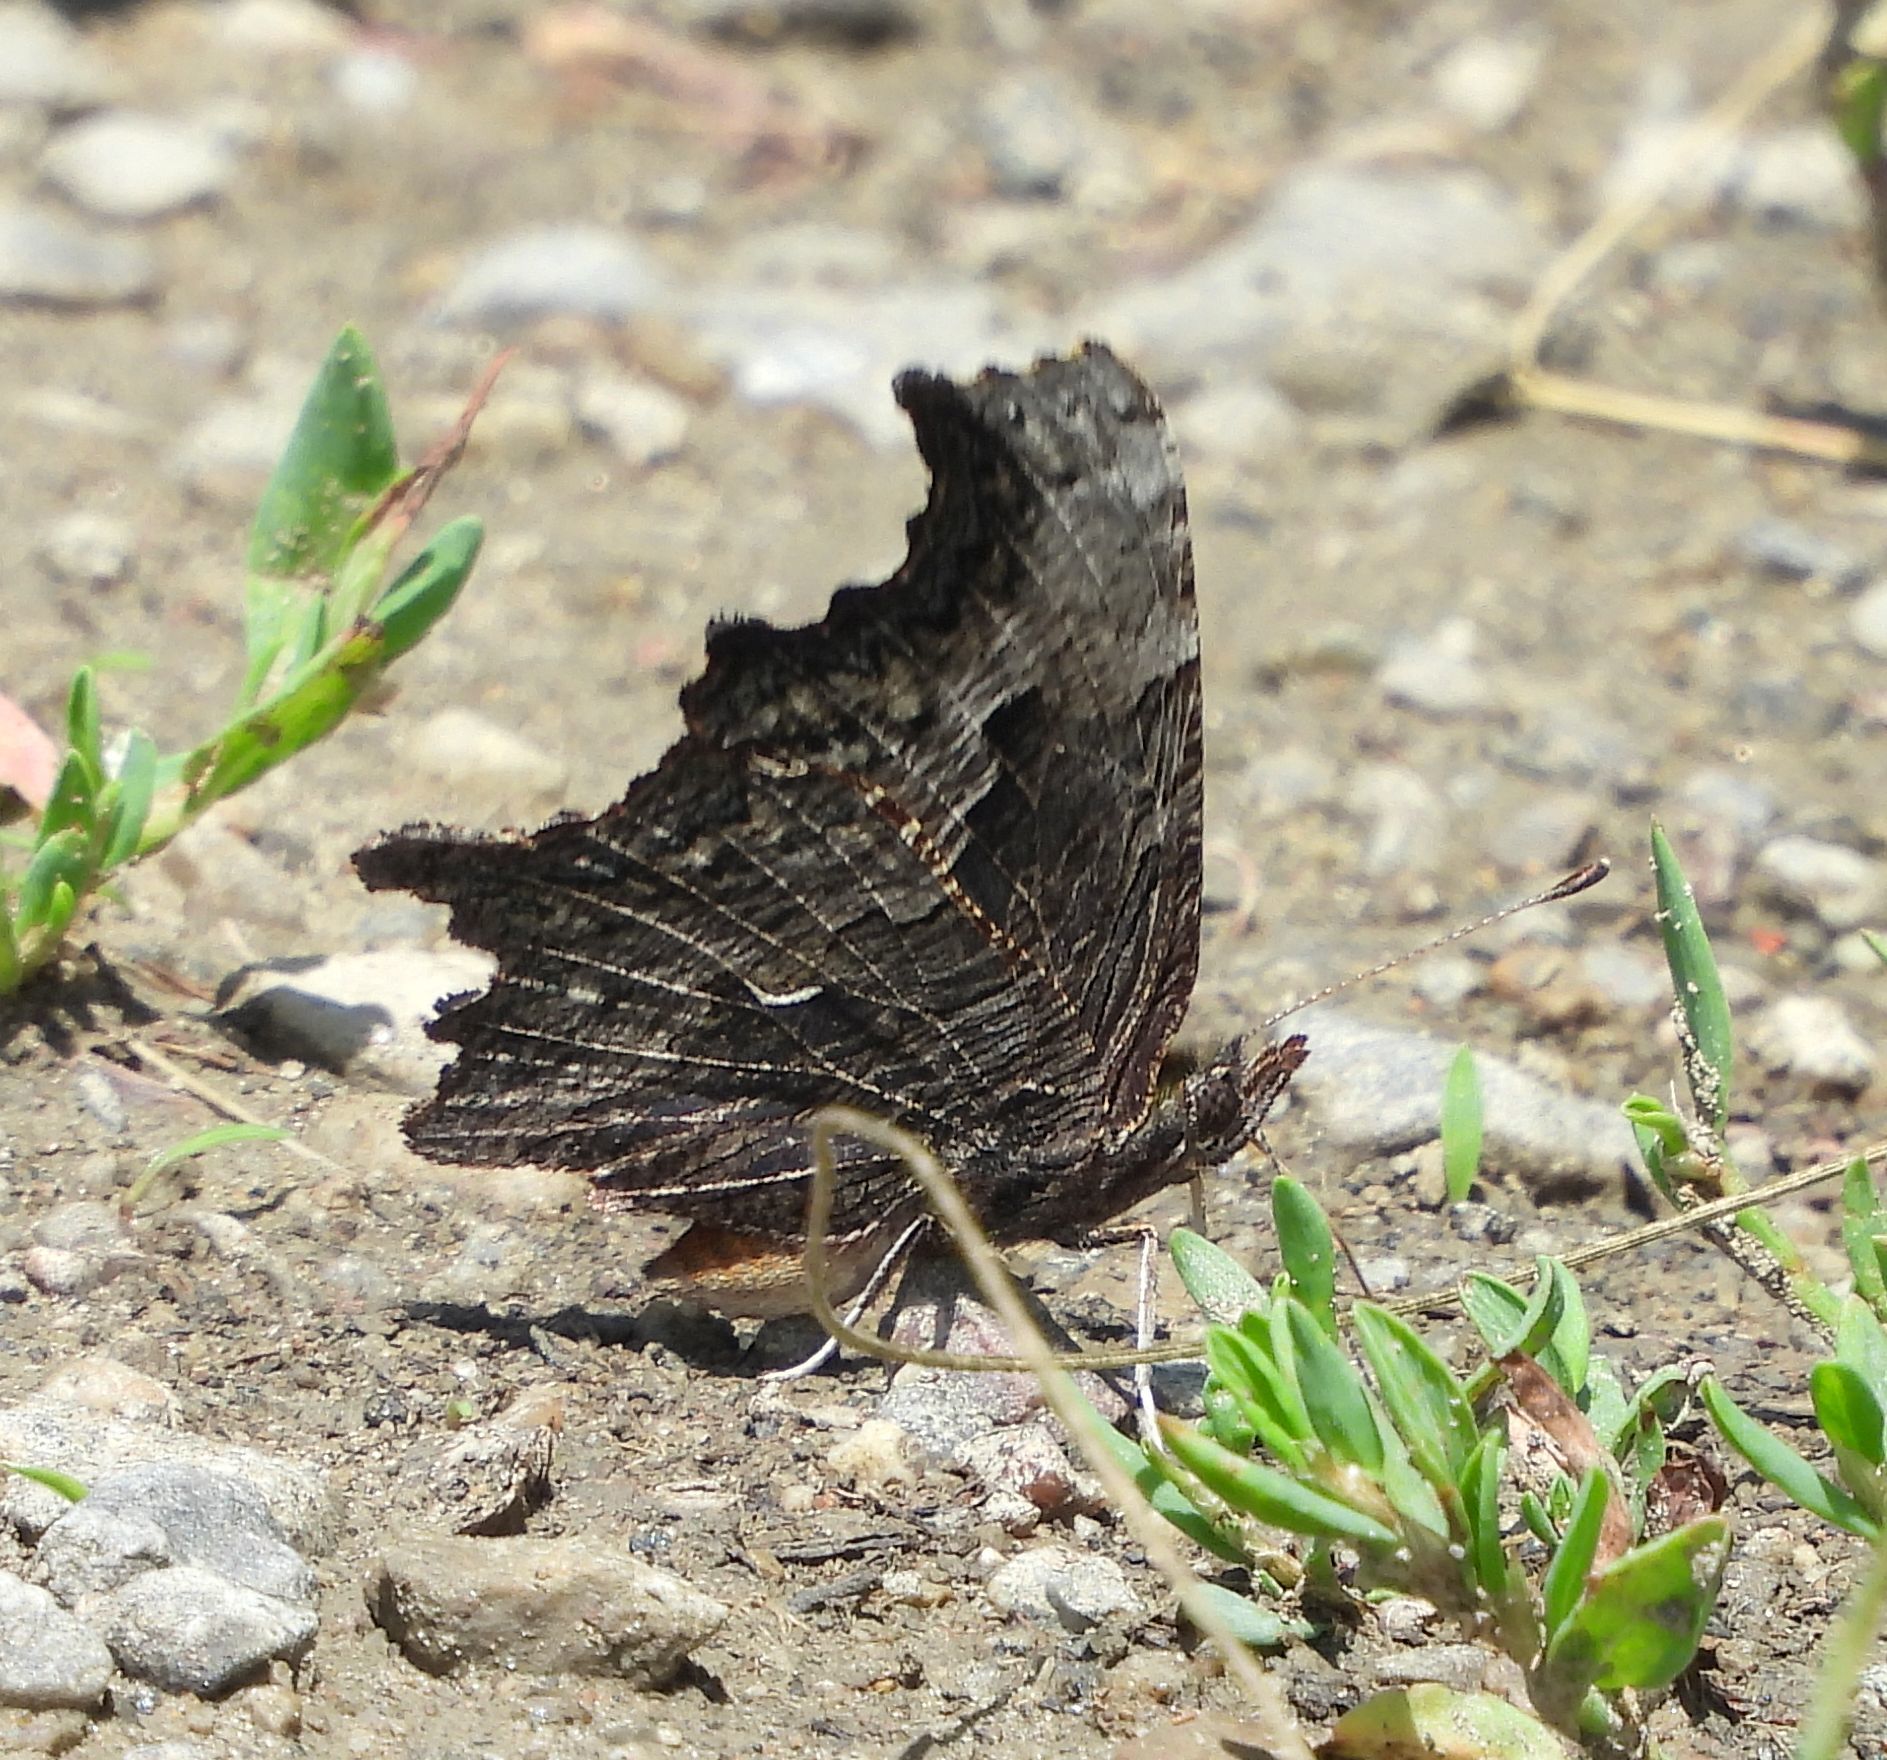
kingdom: Animalia
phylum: Arthropoda
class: Insecta
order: Lepidoptera
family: Nymphalidae
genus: Polygonia
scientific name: Polygonia progne
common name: Gray comma
